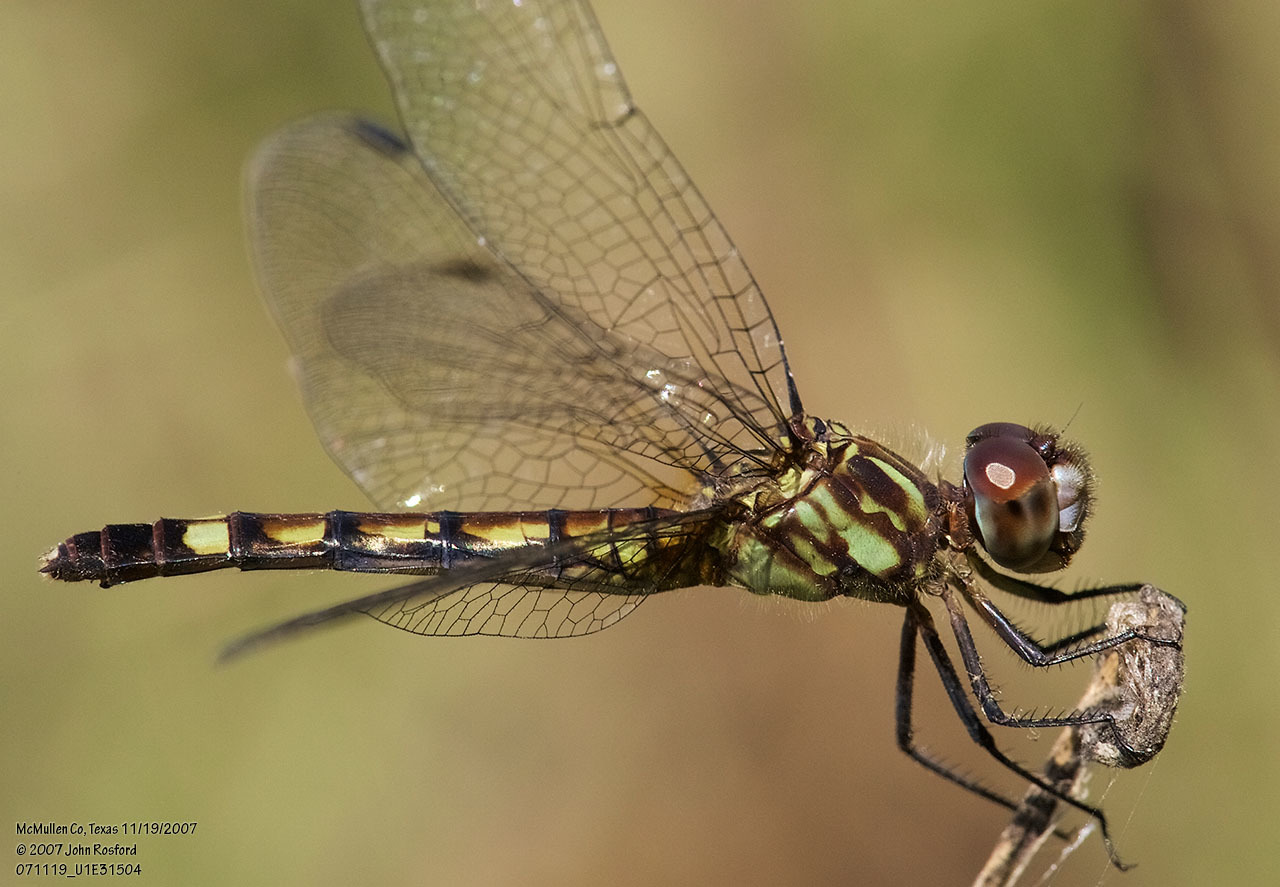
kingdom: Animalia
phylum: Arthropoda
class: Insecta
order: Odonata
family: Libellulidae
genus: Micrathyria
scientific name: Micrathyria hagenii
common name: Thornbush dasher
